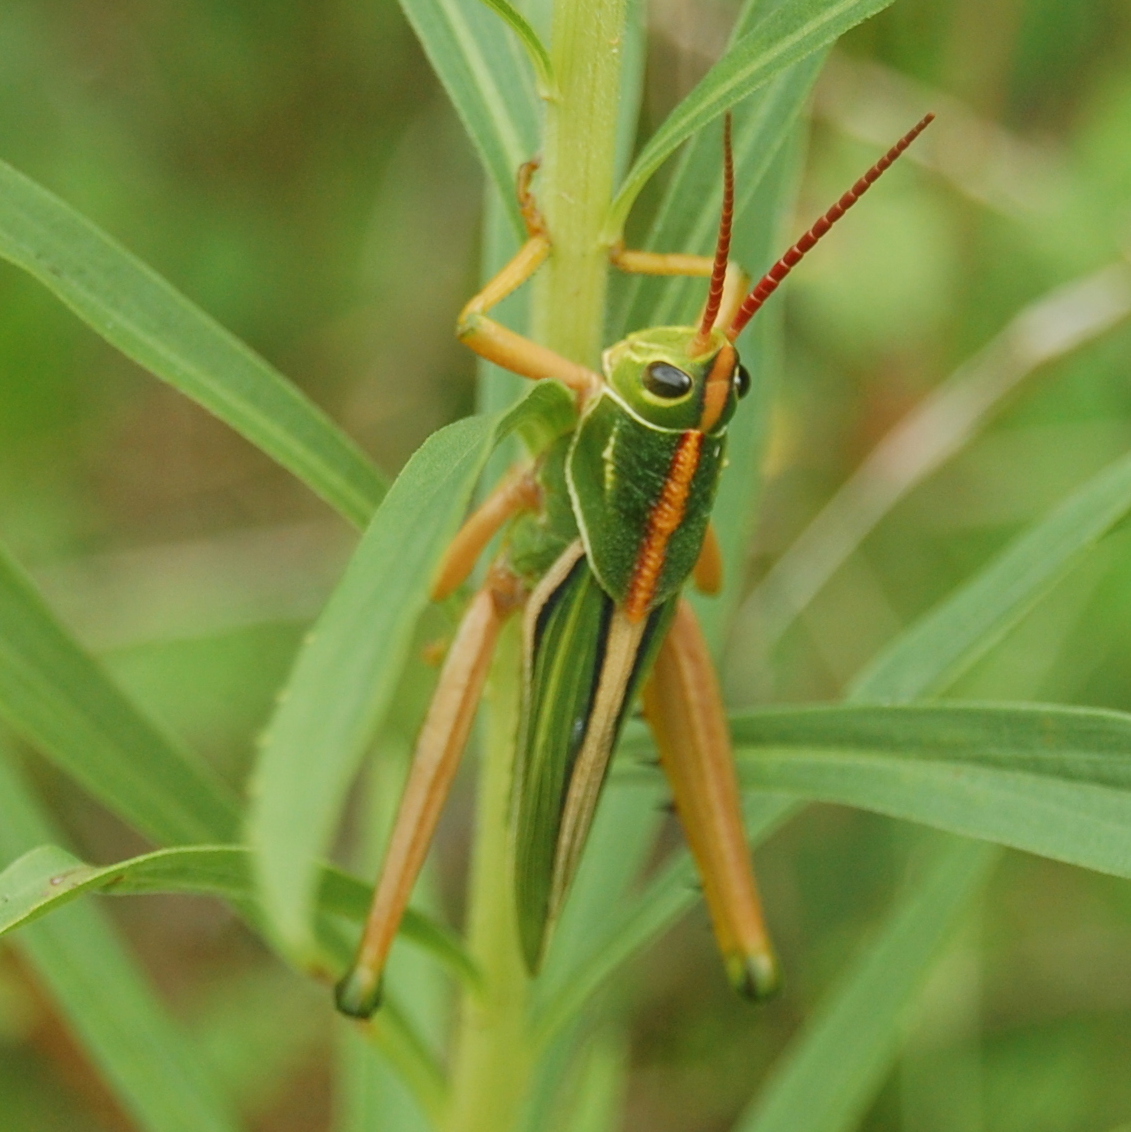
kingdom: Animalia
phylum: Arthropoda
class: Insecta
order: Orthoptera
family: Romaleidae
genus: Staleochlora
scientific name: Staleochlora viridicata
